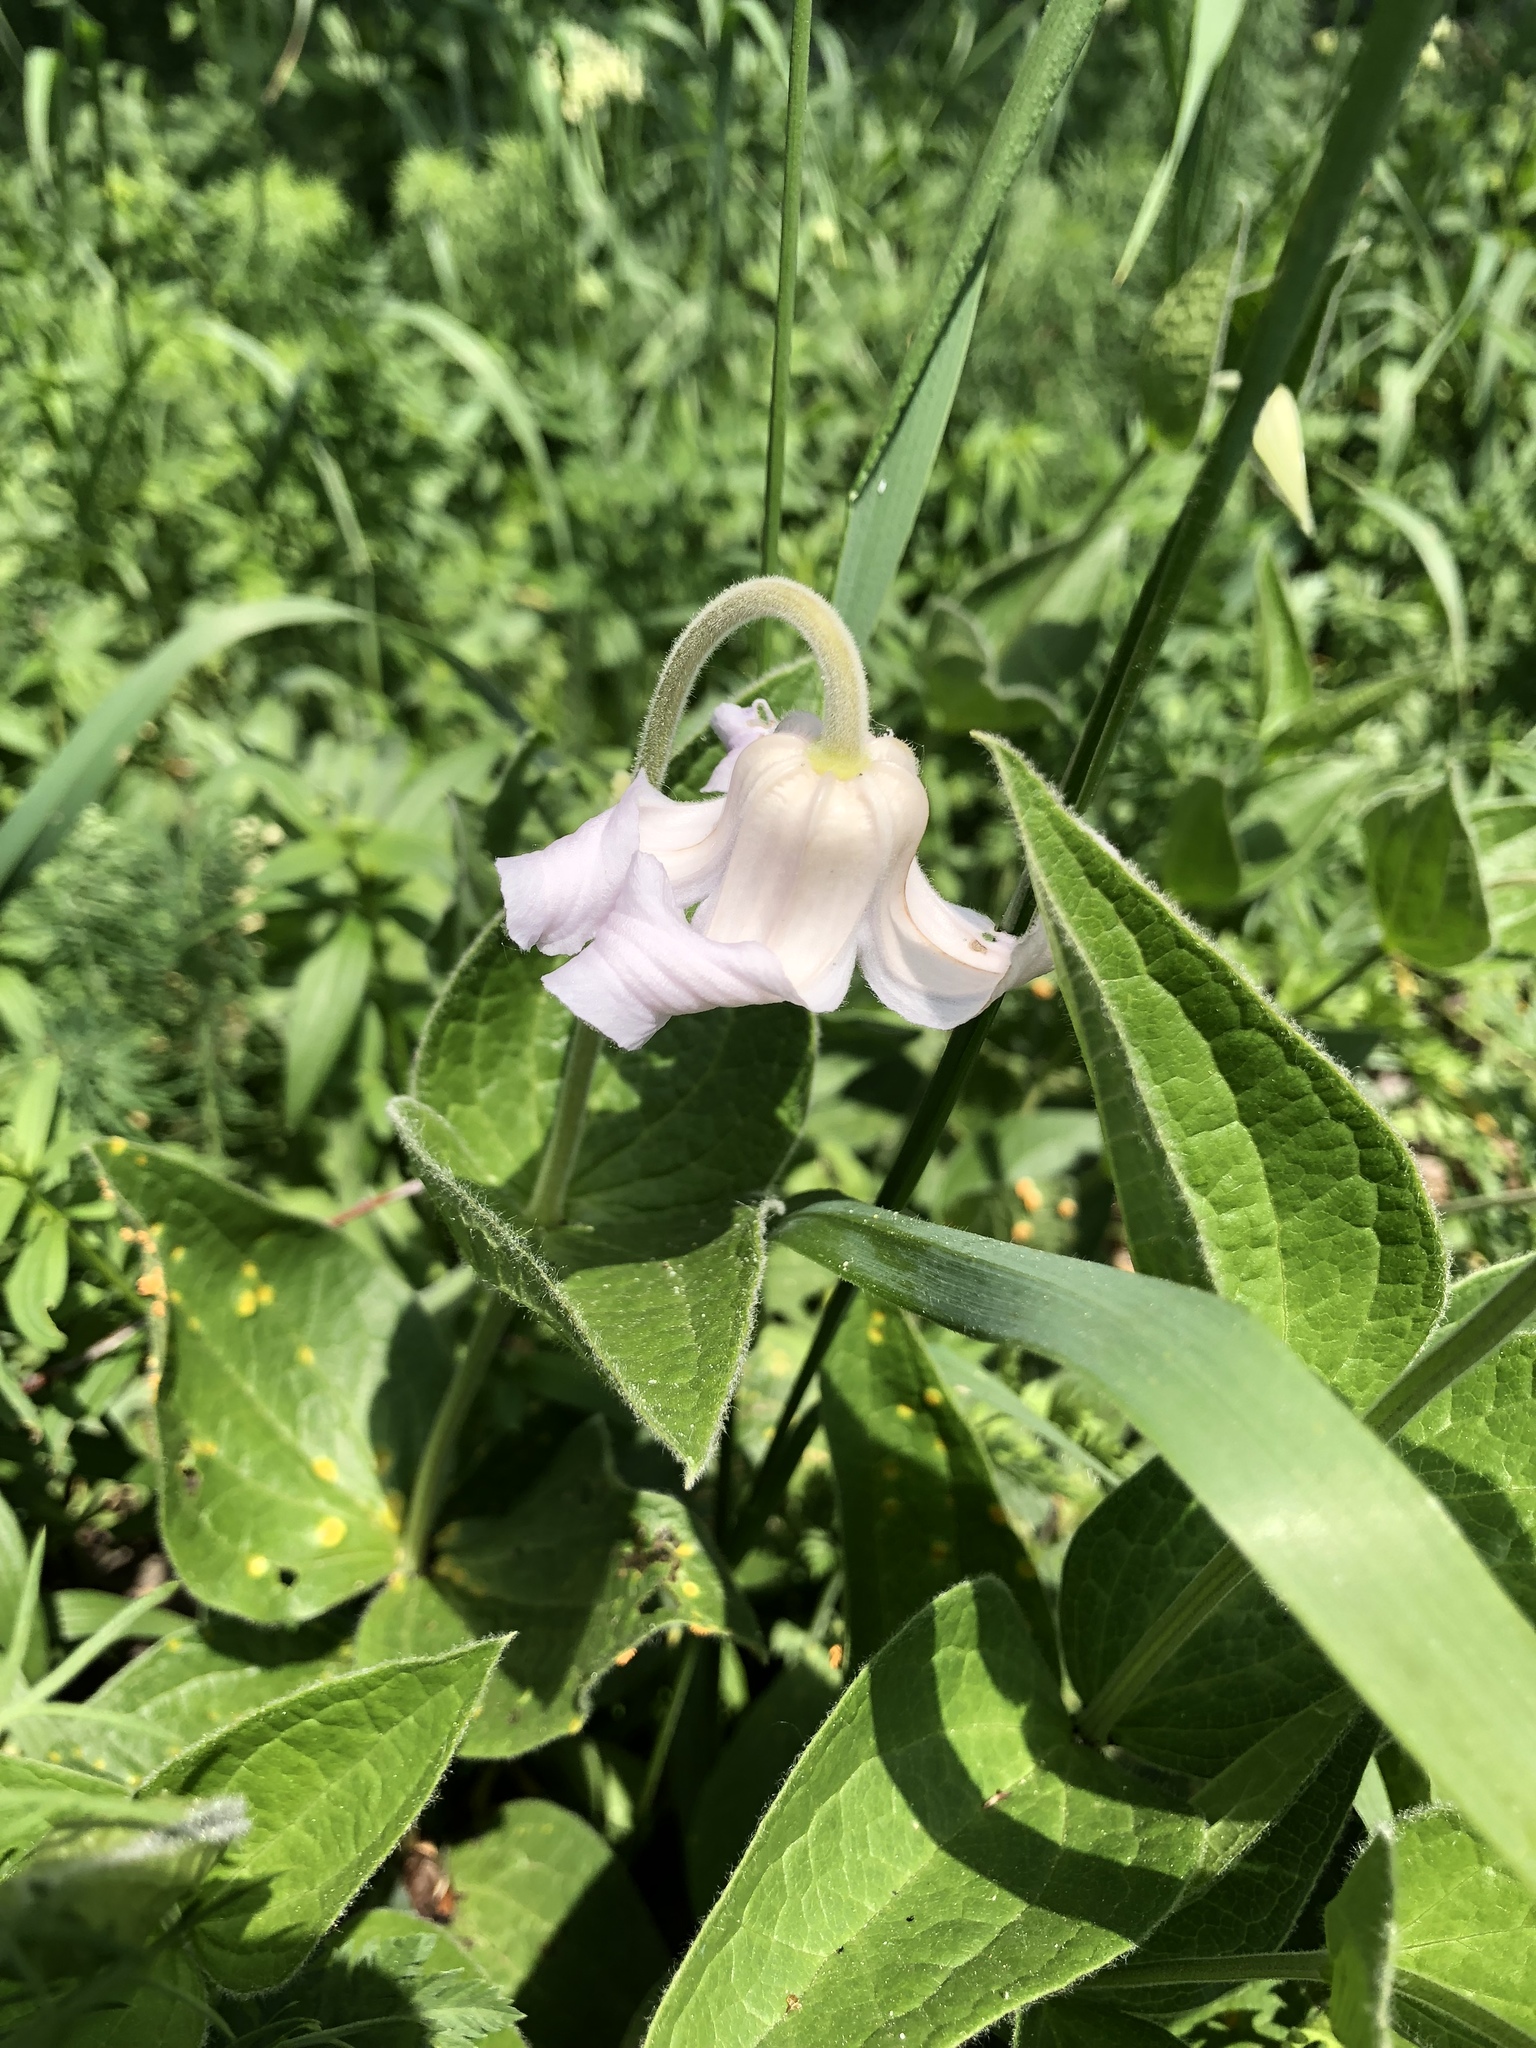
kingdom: Plantae
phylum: Tracheophyta
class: Magnoliopsida
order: Ranunculales
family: Ranunculaceae
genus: Clematis
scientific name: Clematis integrifolia
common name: Solitary clematis
